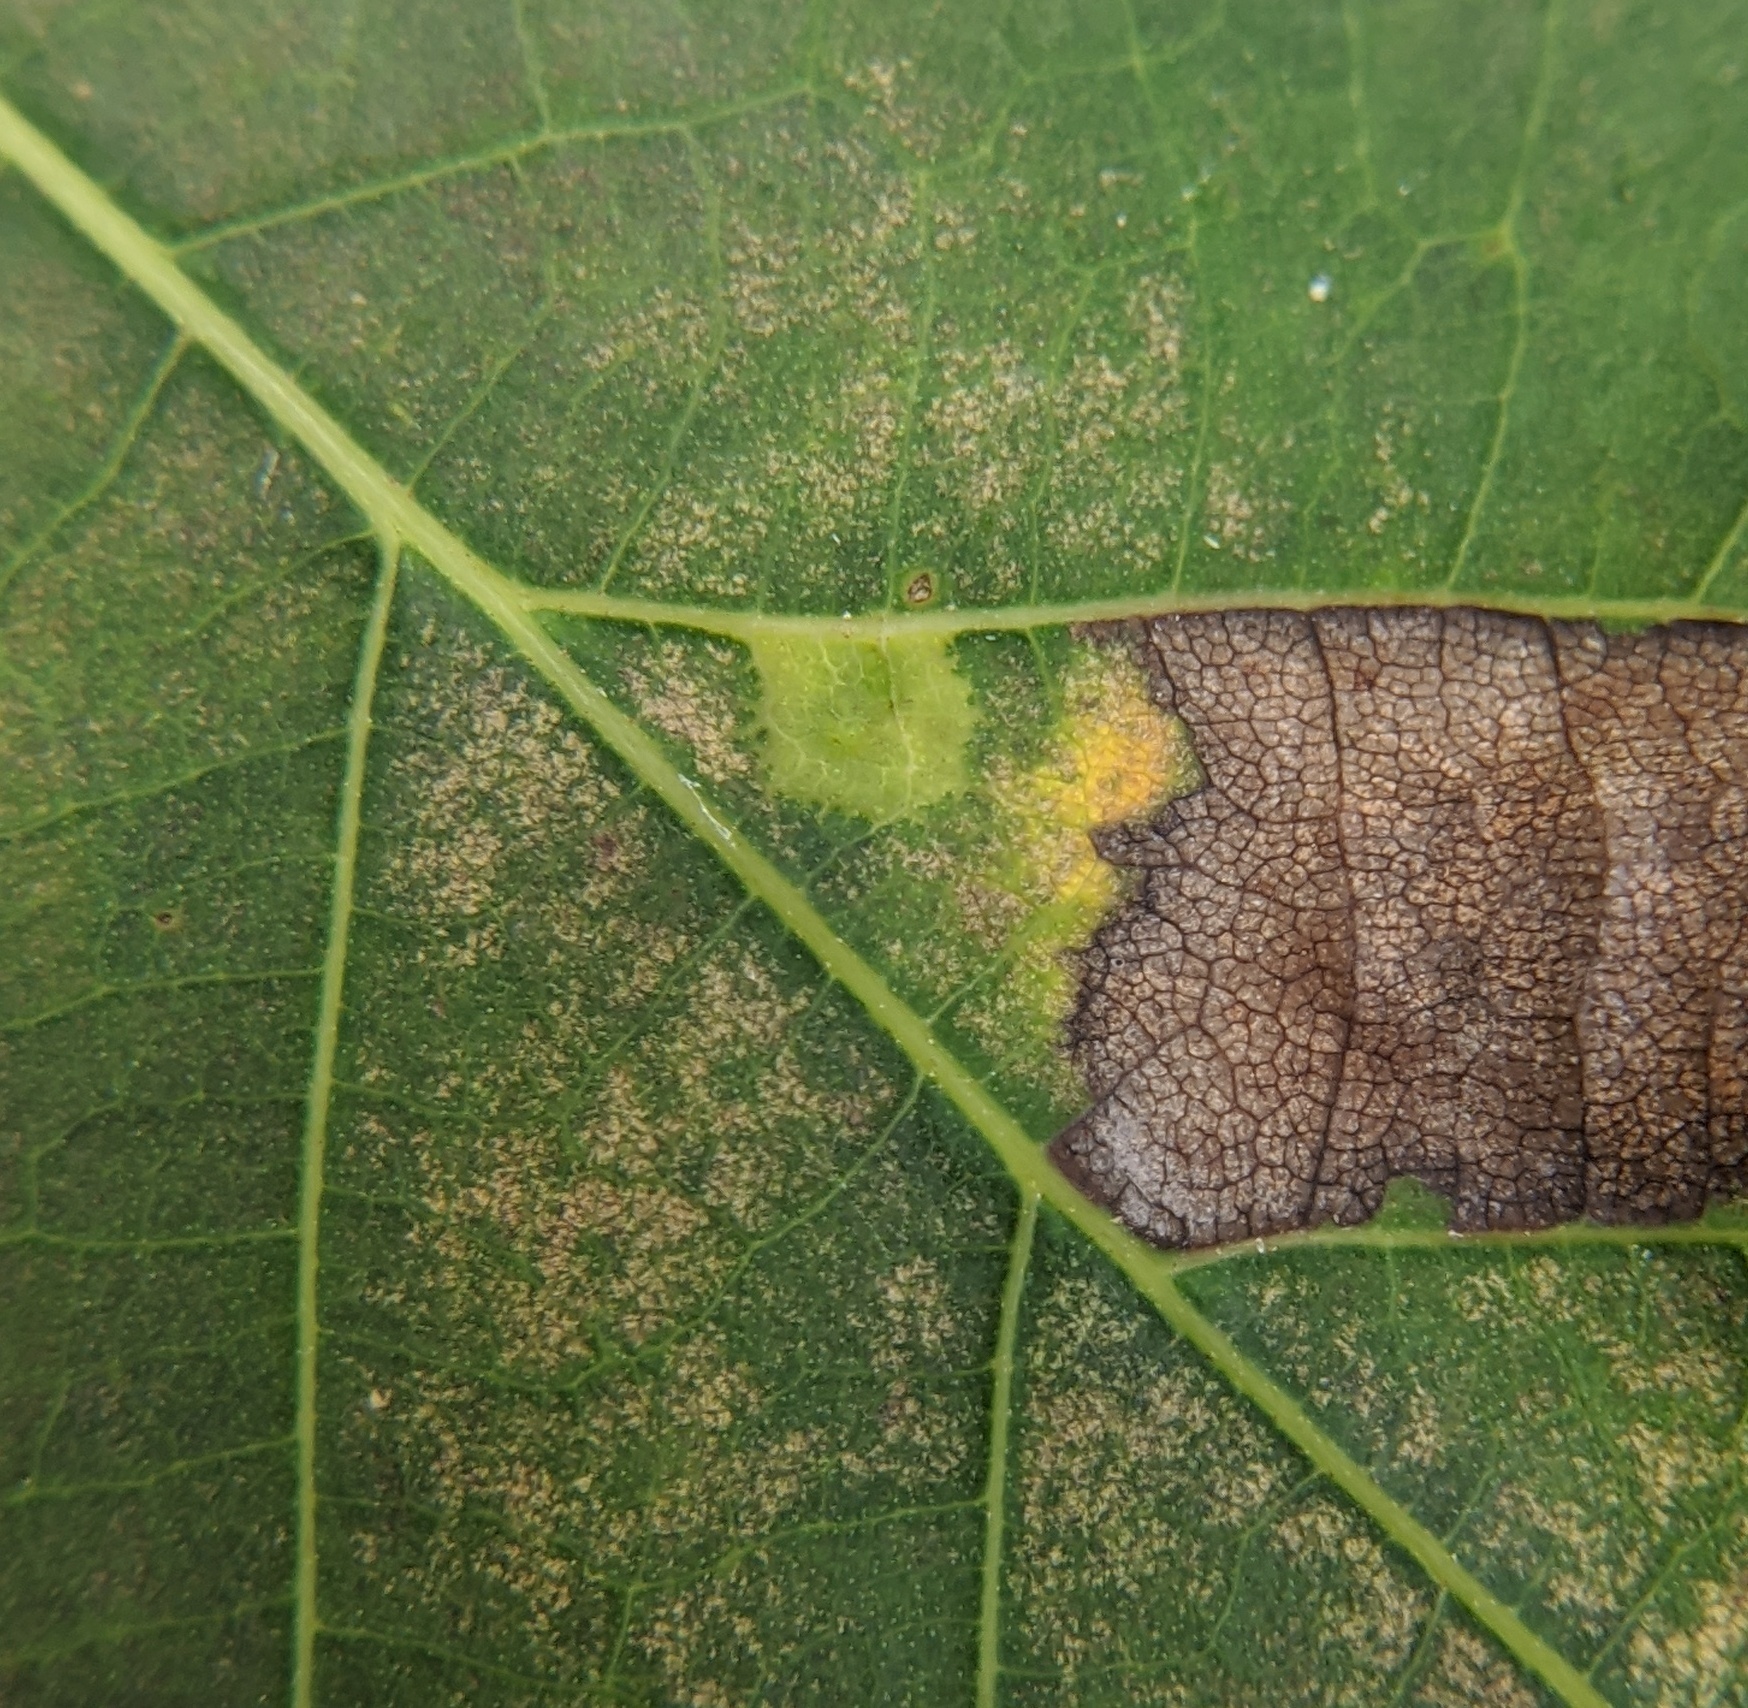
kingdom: Animalia
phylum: Arthropoda
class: Insecta
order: Diptera
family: Cecidomyiidae
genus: Caryomyia
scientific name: Caryomyia deflexipili
